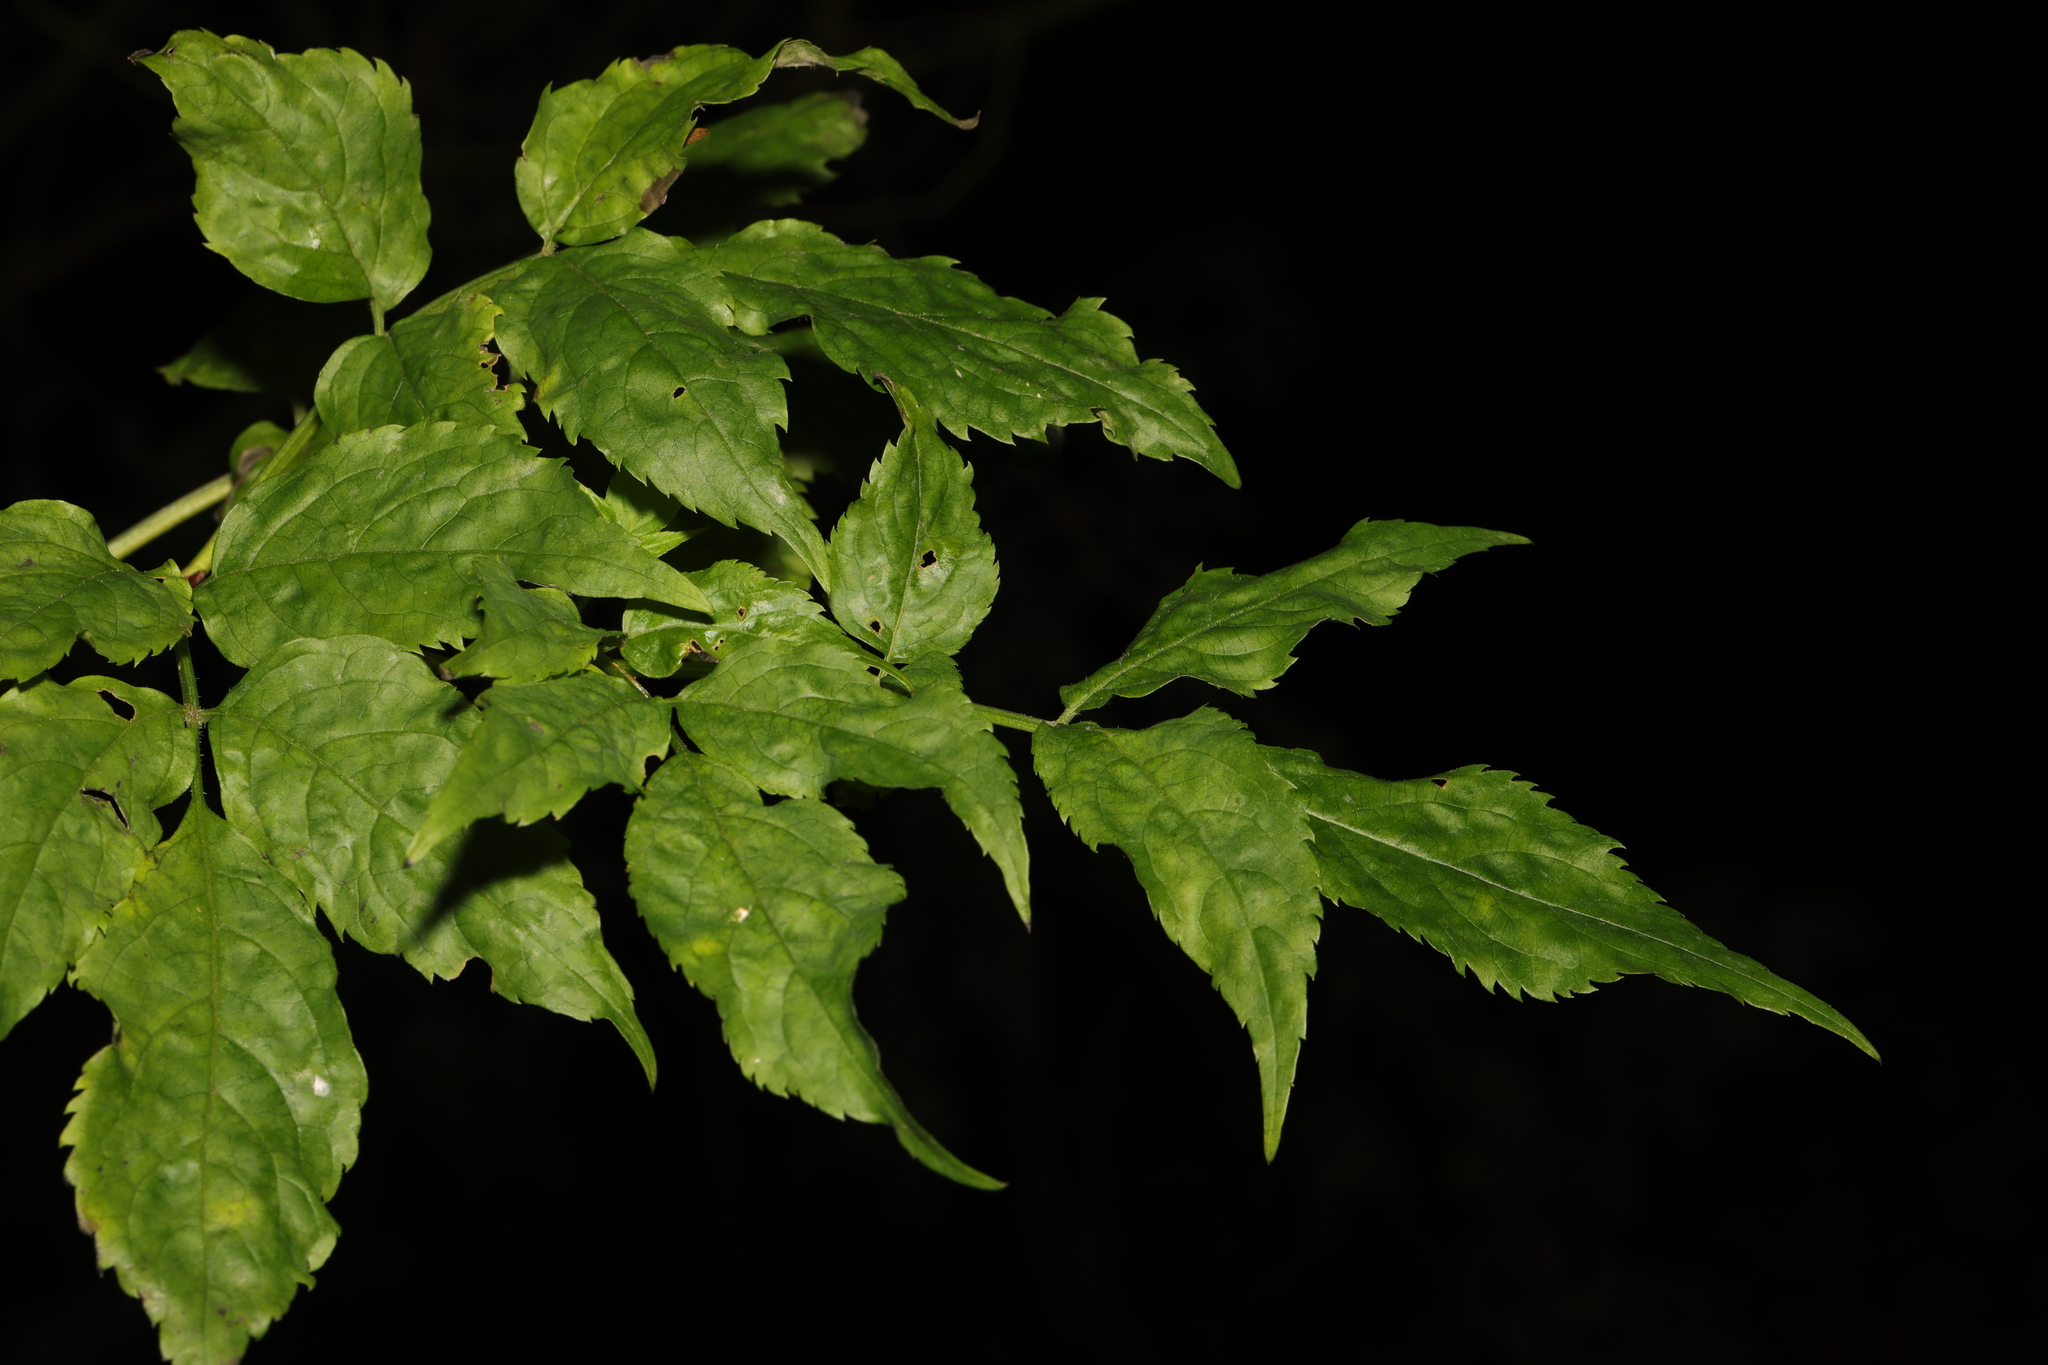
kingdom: Plantae
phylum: Tracheophyta
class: Magnoliopsida
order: Dipsacales
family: Viburnaceae
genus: Sambucus
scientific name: Sambucus nigra
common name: Elder
